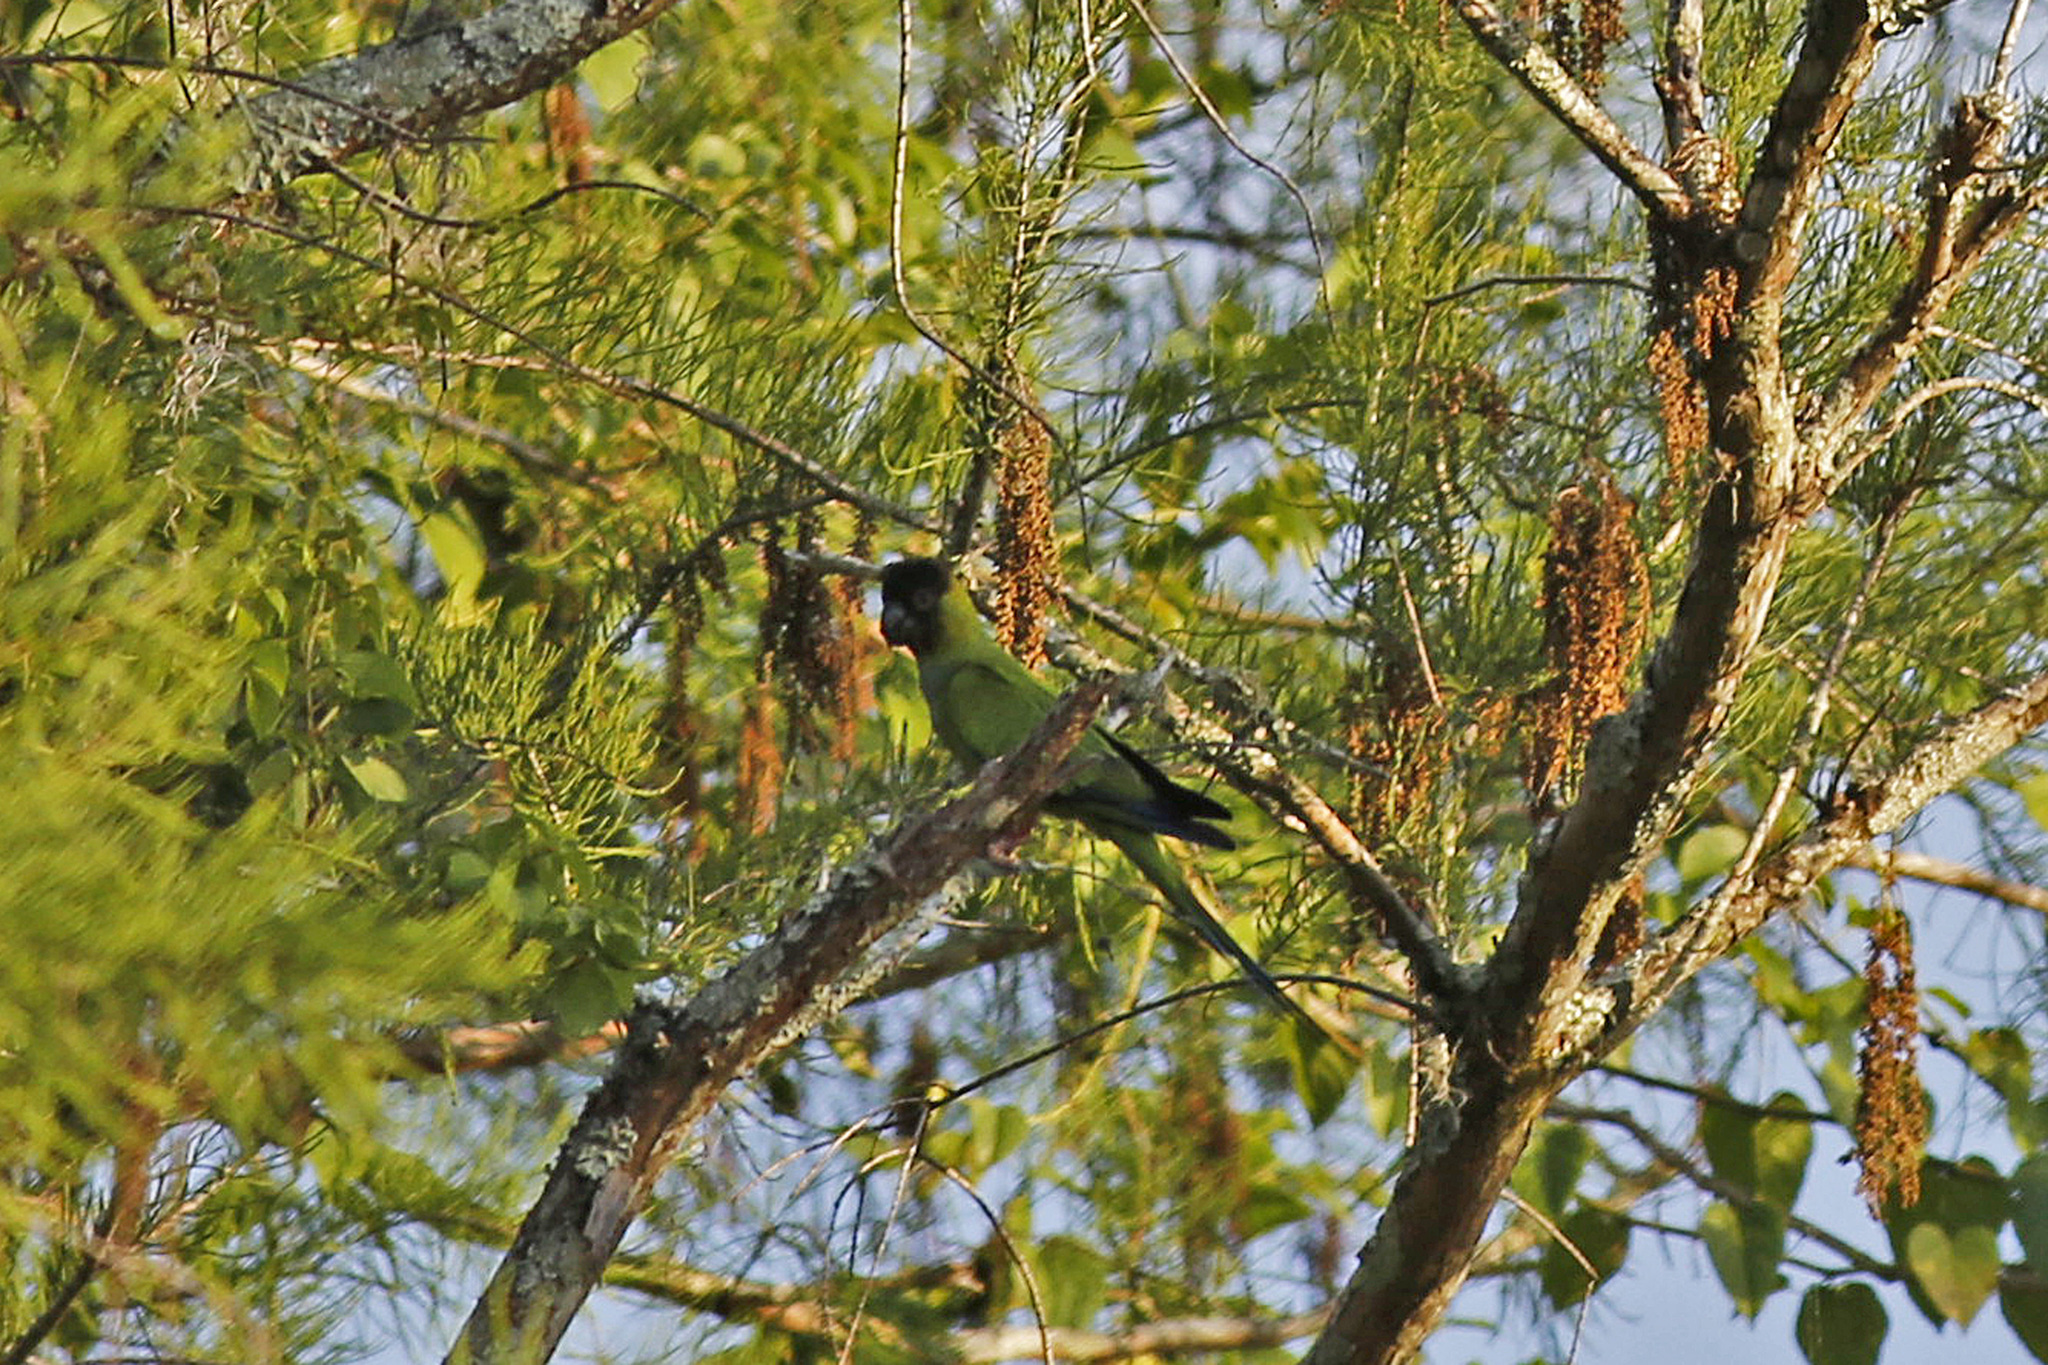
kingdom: Animalia
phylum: Chordata
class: Aves
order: Psittaciformes
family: Psittacidae
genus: Nandayus
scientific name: Nandayus nenday
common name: Nanday parakeet
